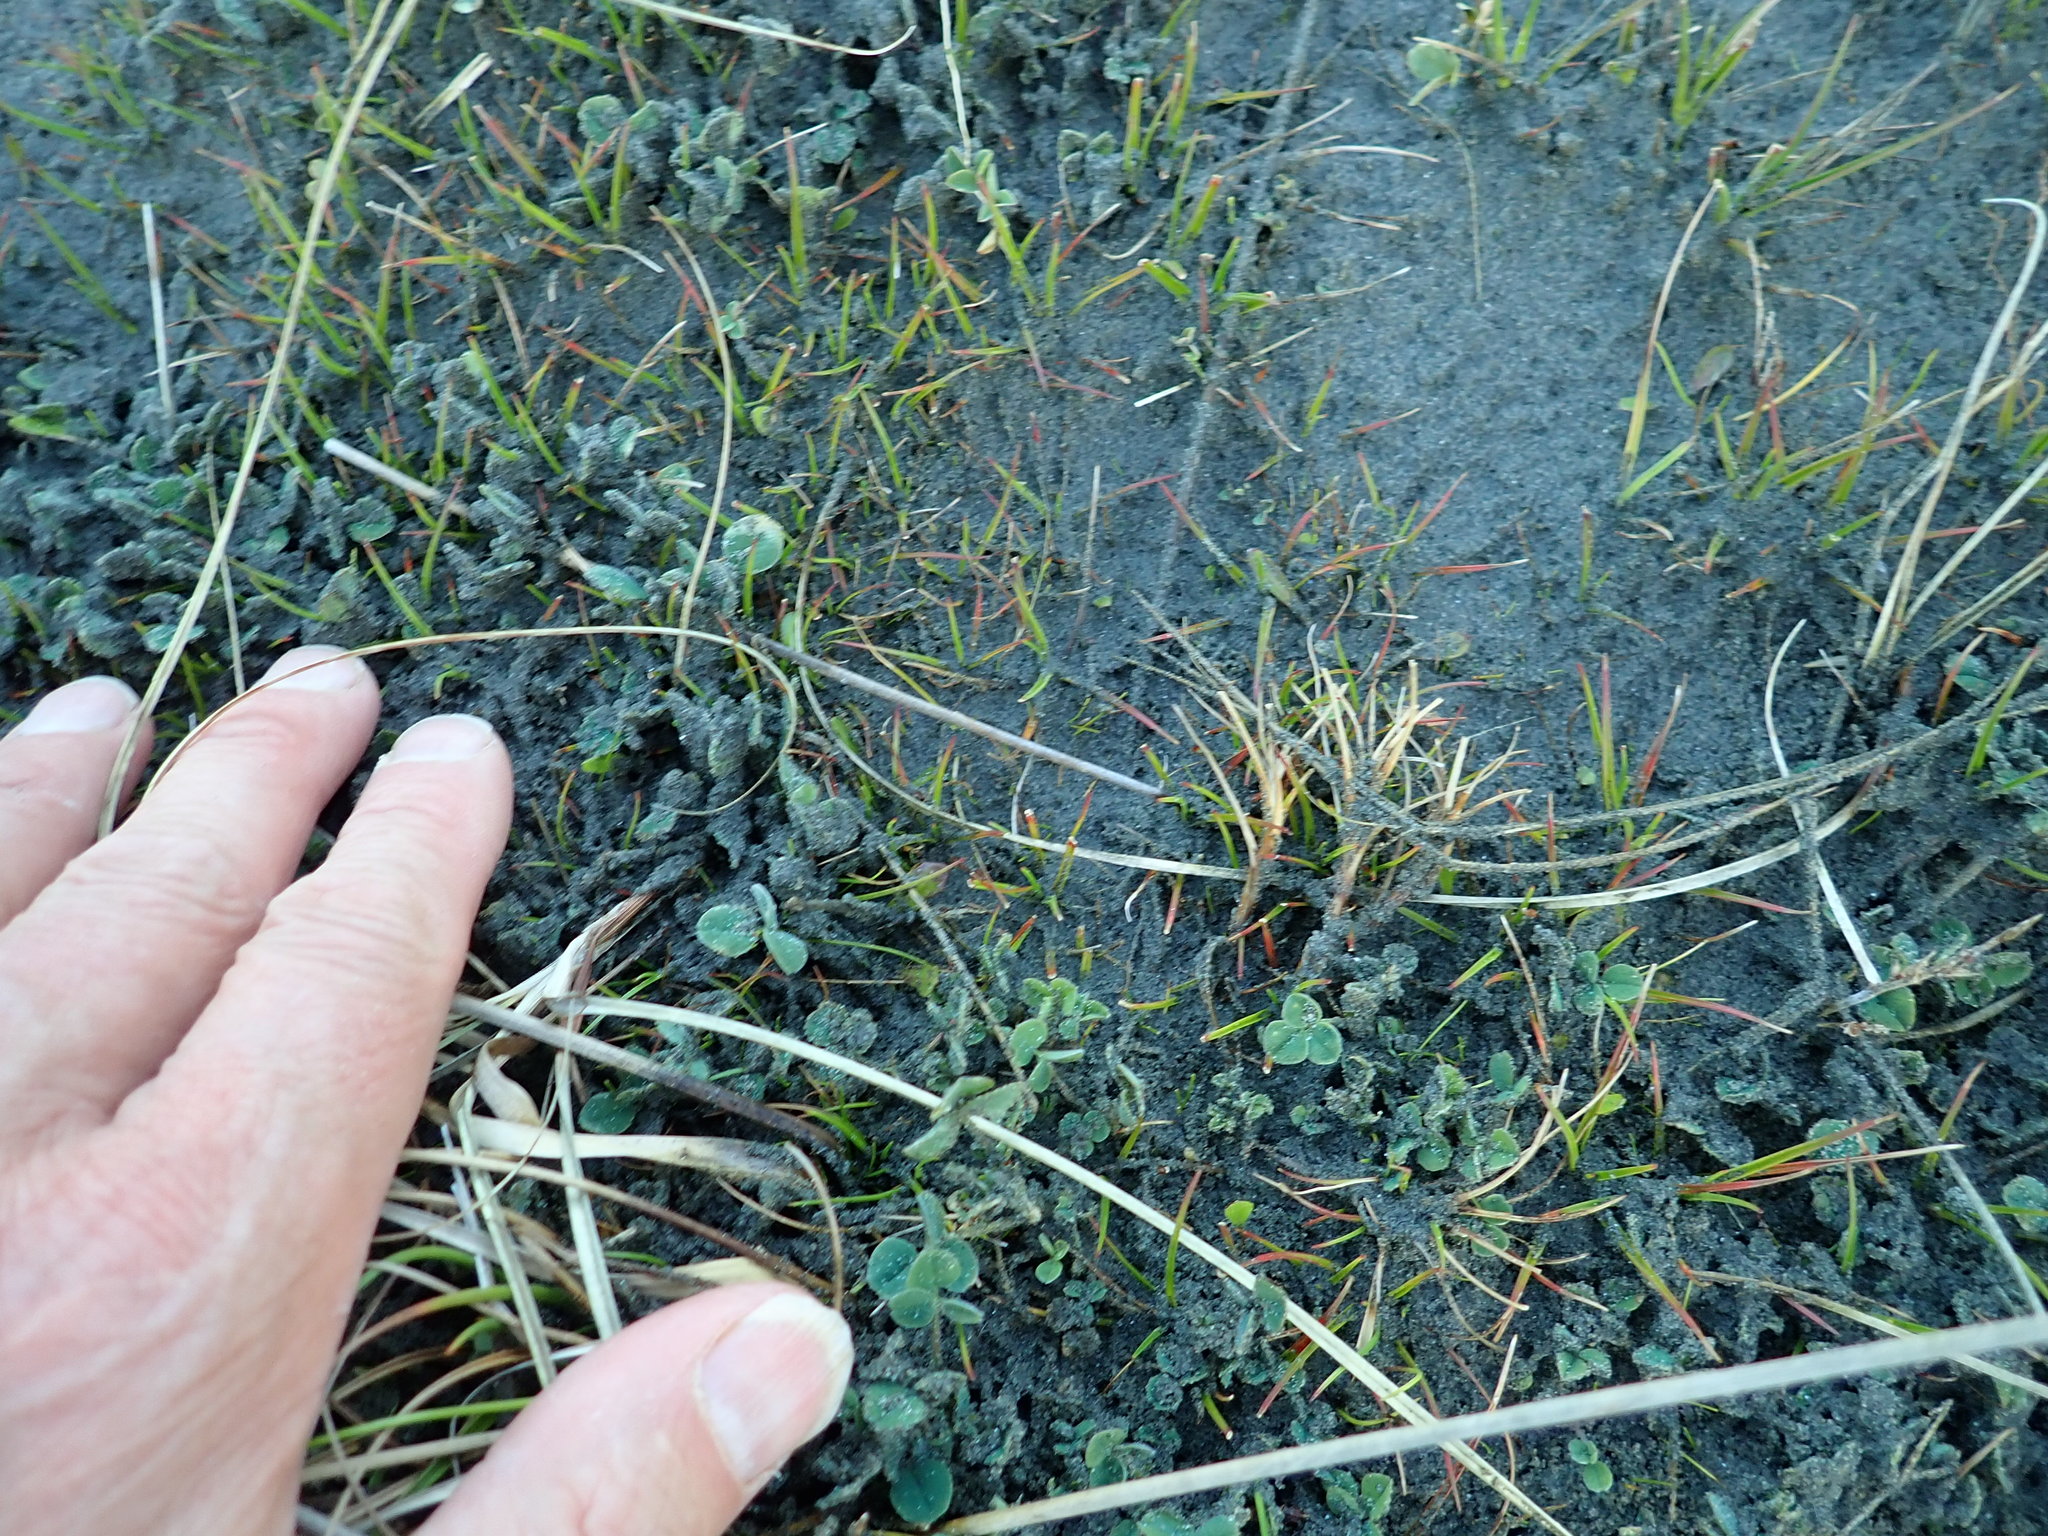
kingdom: Plantae
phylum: Tracheophyta
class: Liliopsida
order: Poales
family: Juncaceae
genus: Juncus
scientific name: Juncus caespiticius
